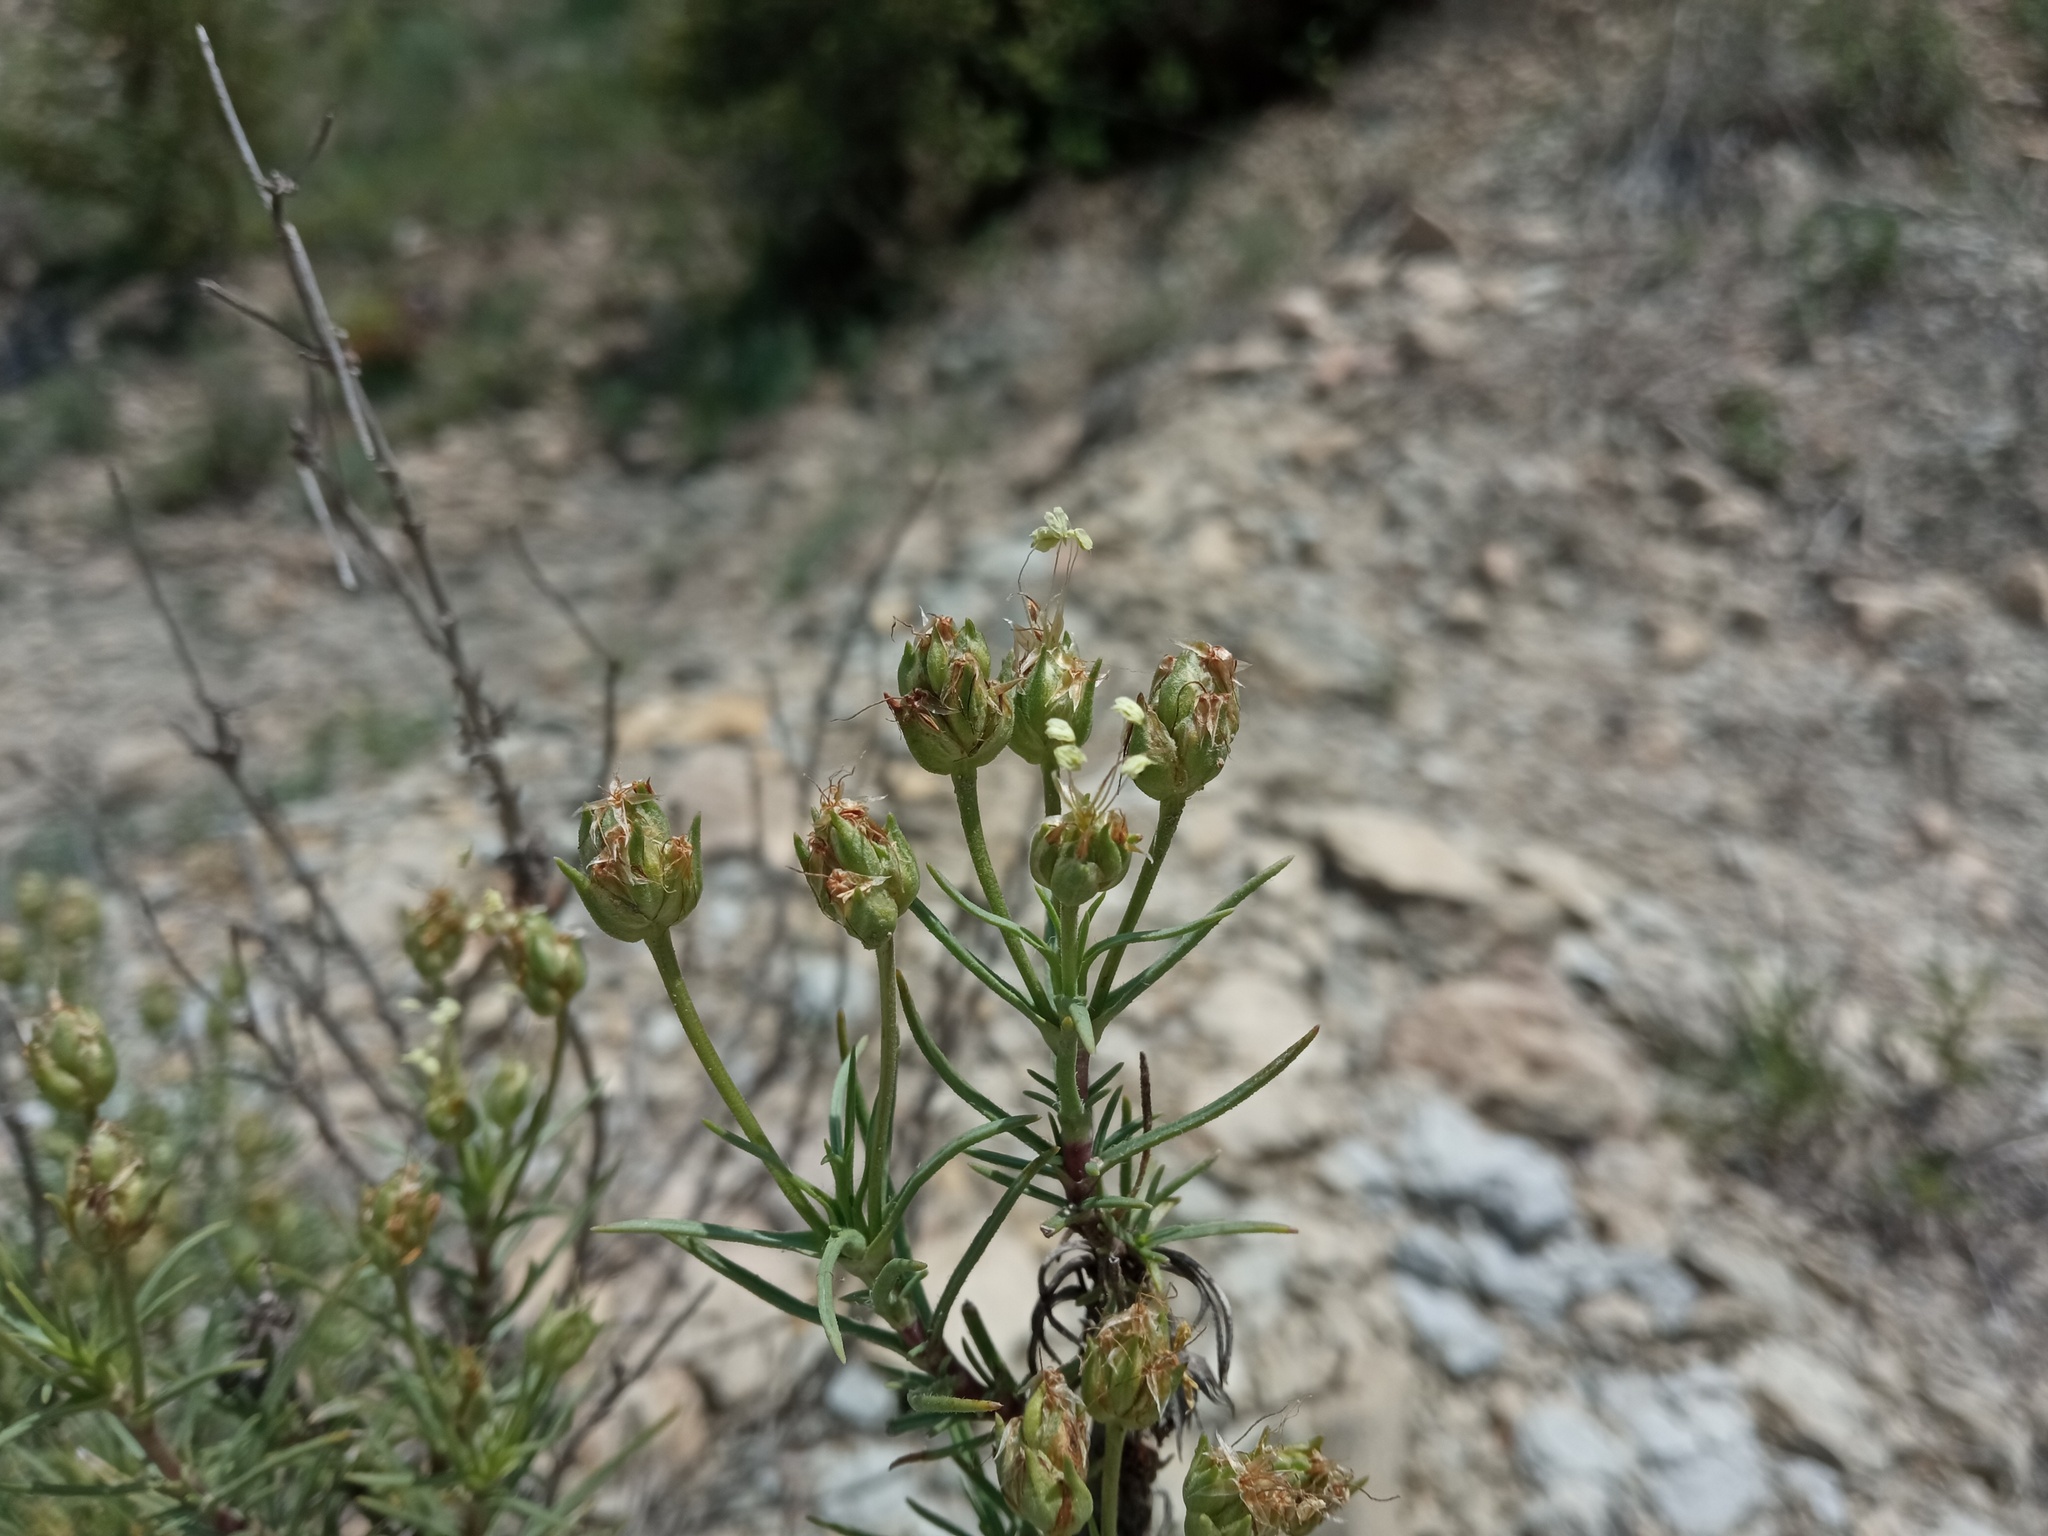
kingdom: Plantae
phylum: Tracheophyta
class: Magnoliopsida
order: Lamiales
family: Plantaginaceae
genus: Plantago
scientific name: Plantago sempervirens
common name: Shrubby plantain
